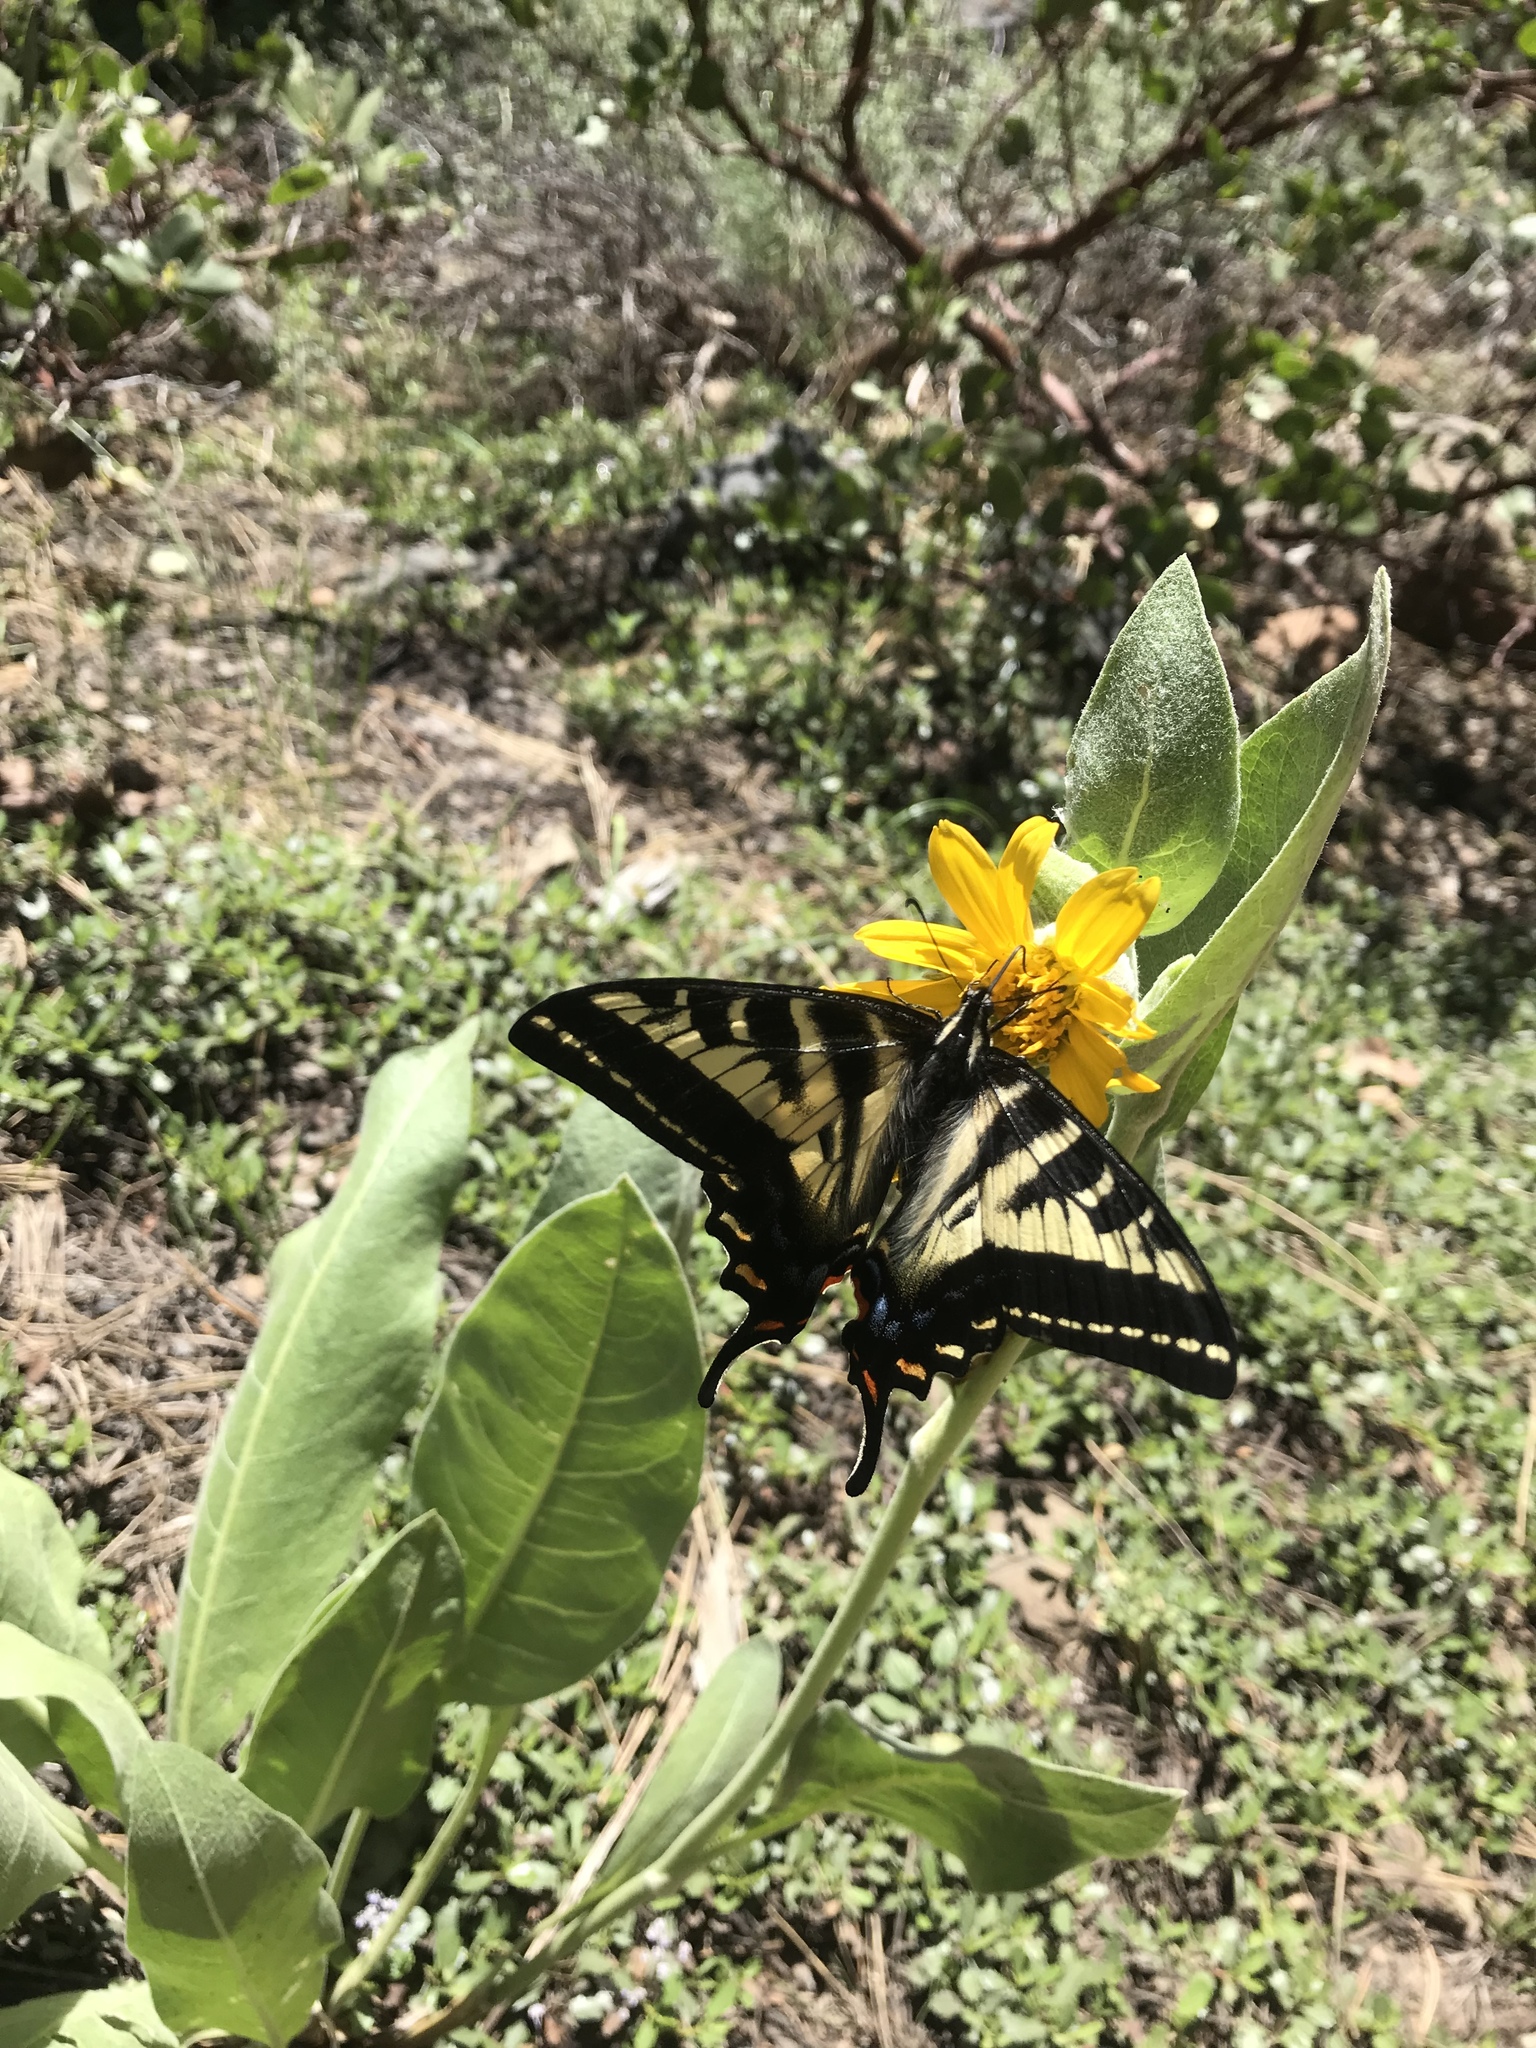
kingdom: Animalia
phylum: Arthropoda
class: Insecta
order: Lepidoptera
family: Papilionidae
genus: Papilio
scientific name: Papilio eurymedon
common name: Pale tiger swallowtail
